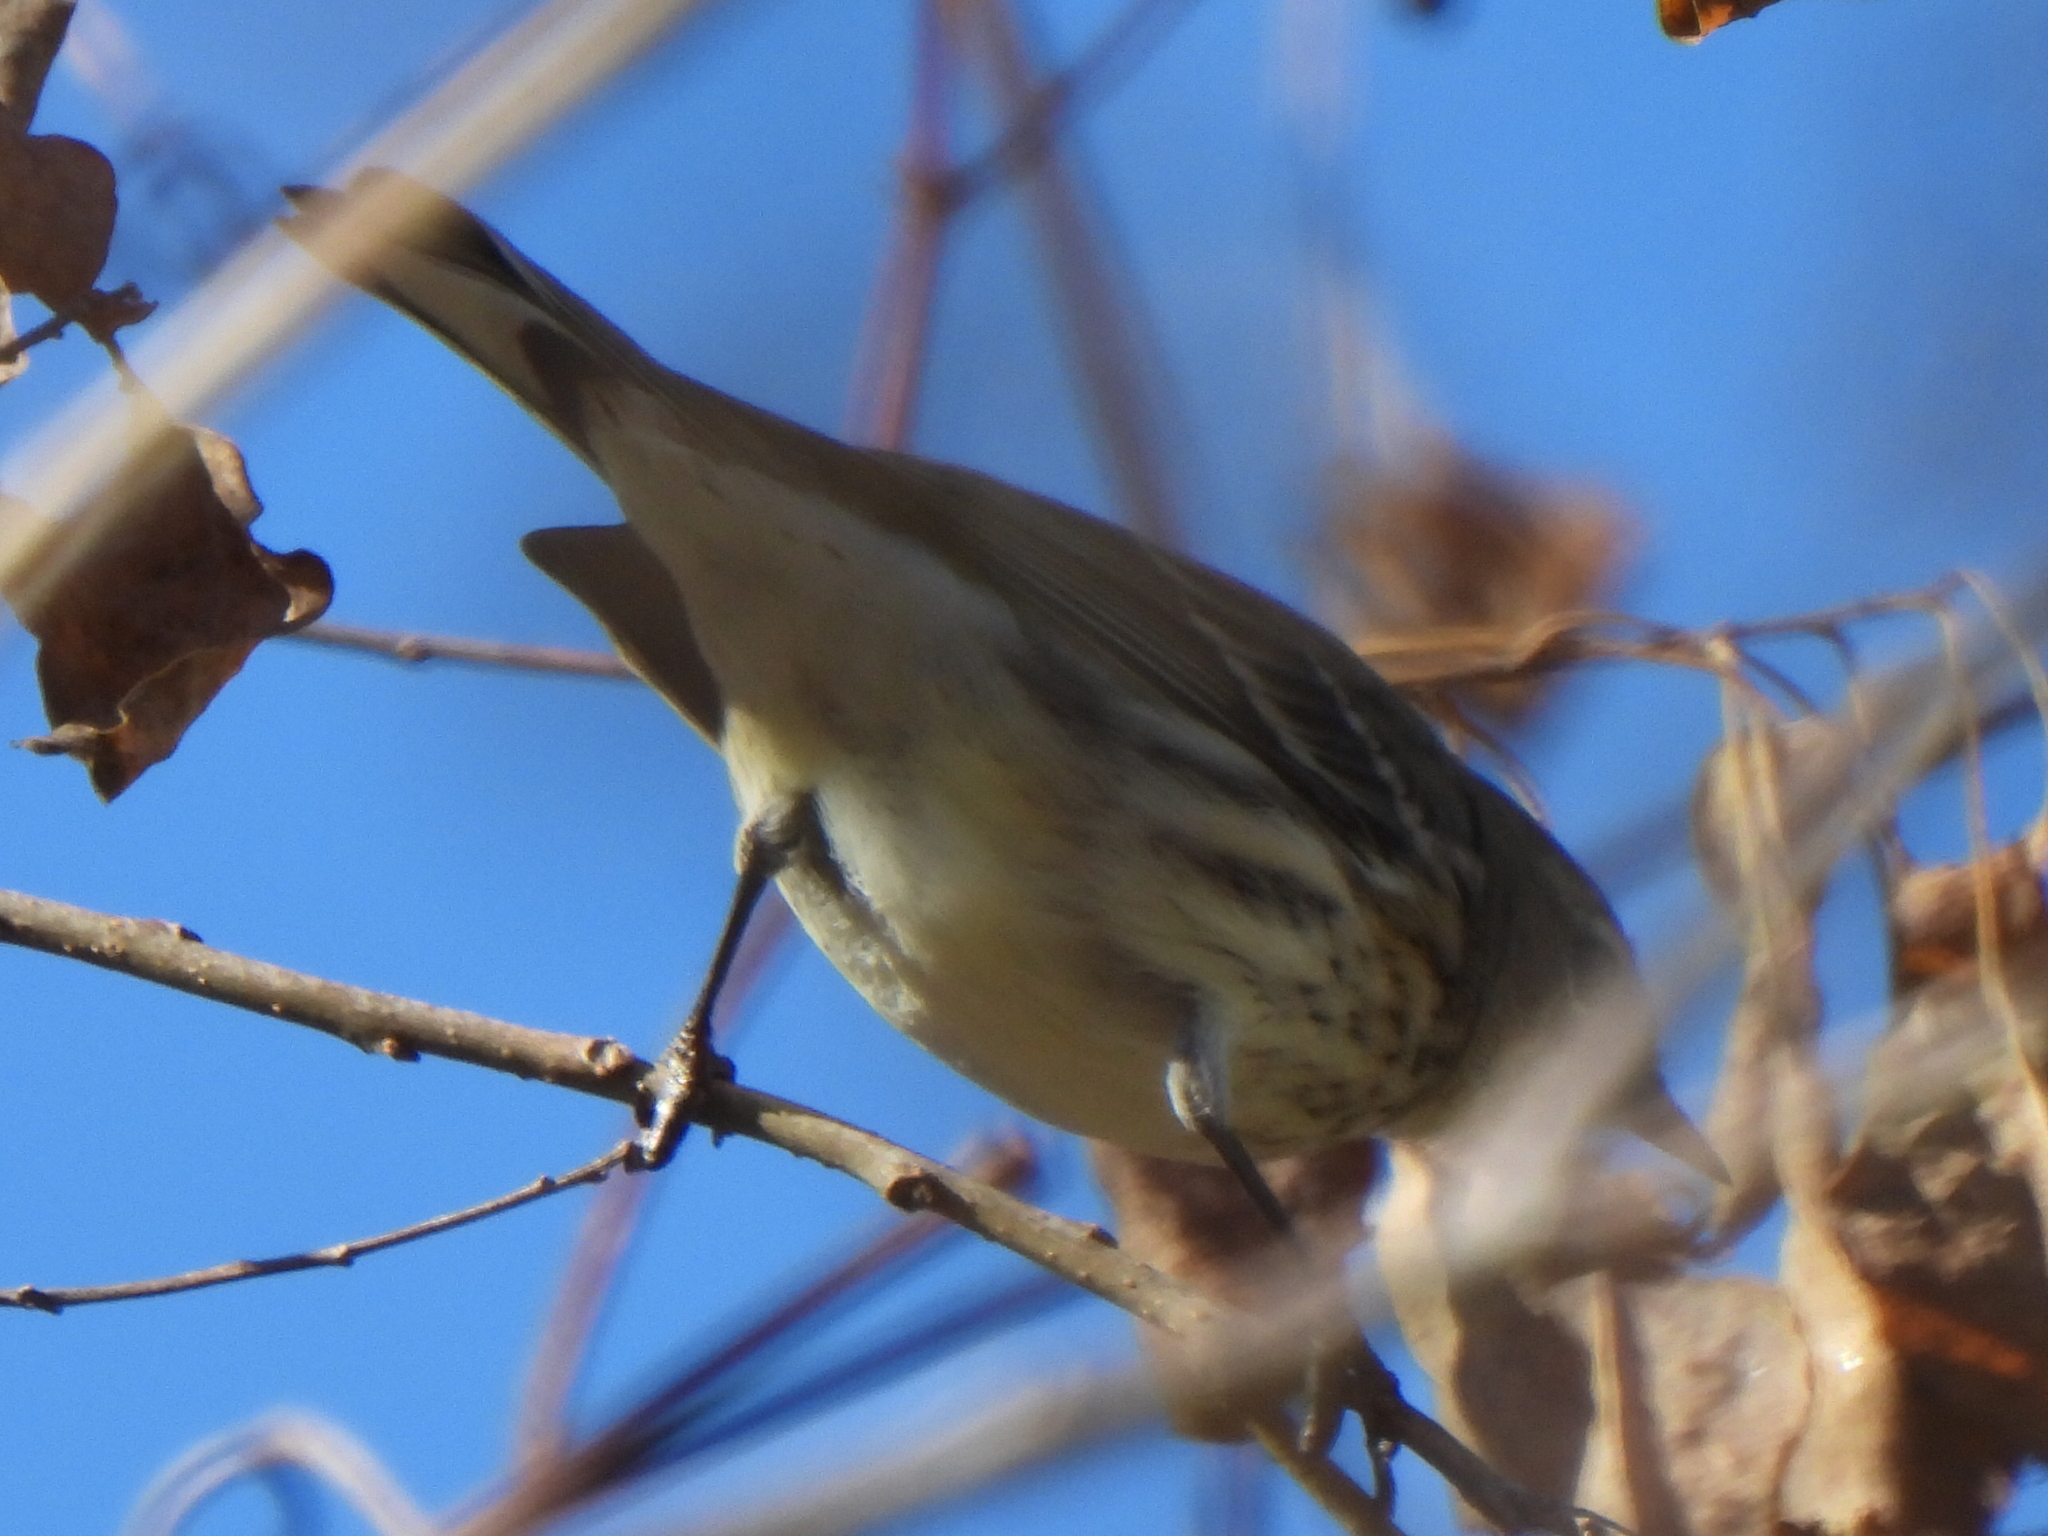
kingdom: Animalia
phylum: Chordata
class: Aves
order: Passeriformes
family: Parulidae
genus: Setophaga
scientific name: Setophaga coronata
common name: Myrtle warbler
